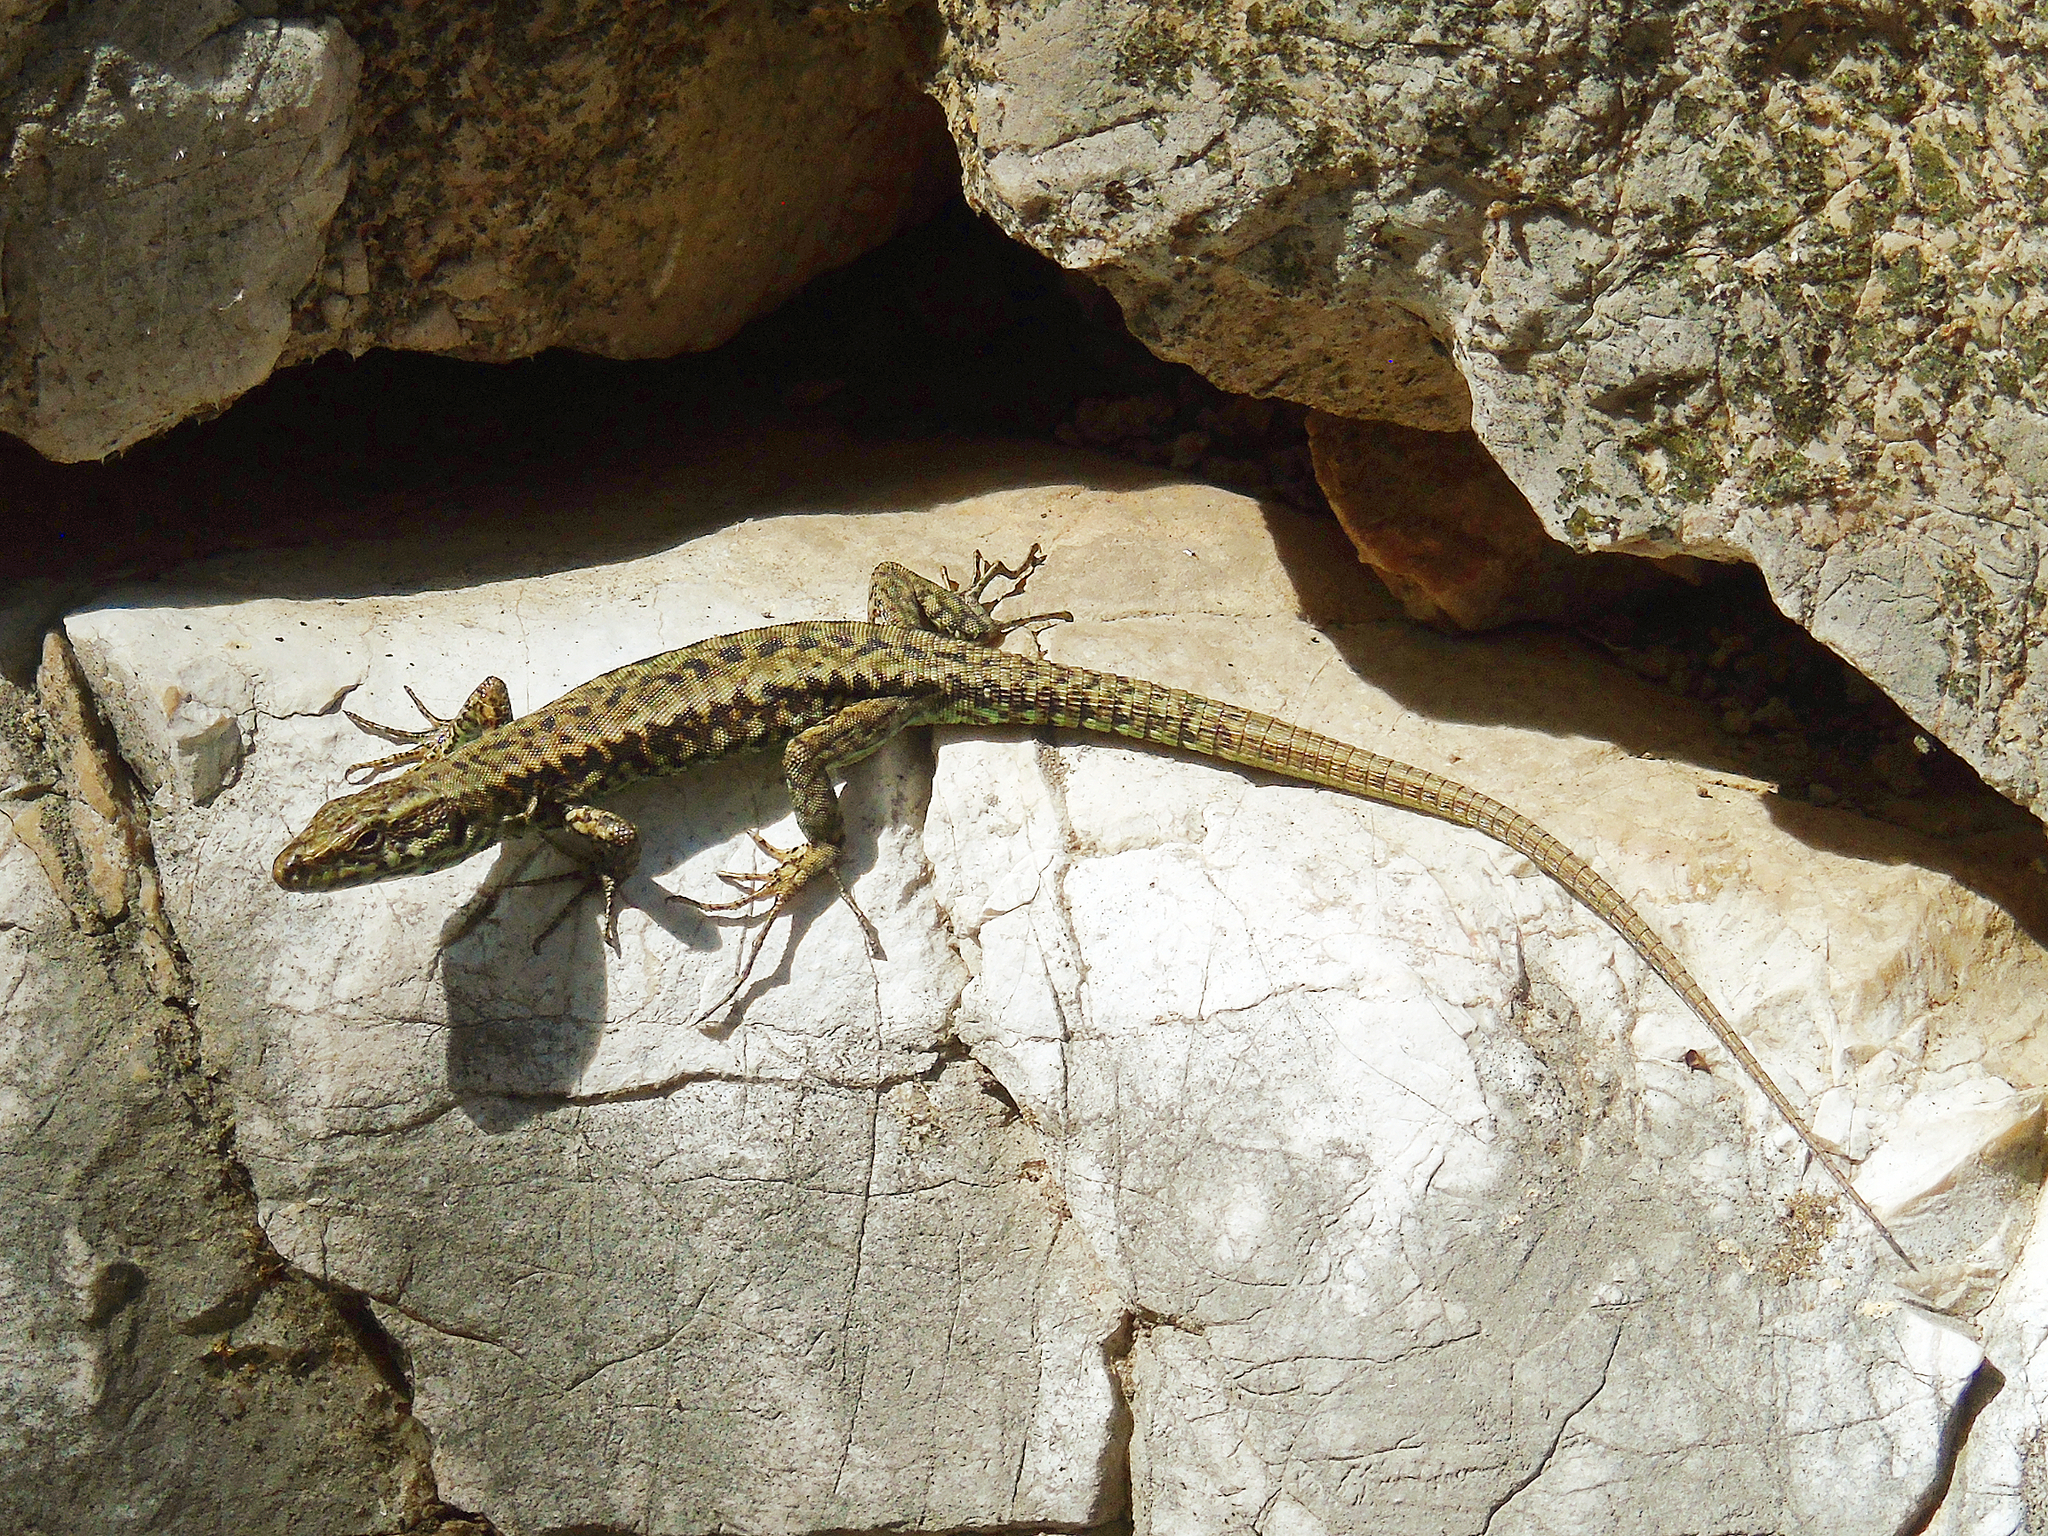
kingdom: Animalia
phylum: Chordata
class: Squamata
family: Lacertidae
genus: Podarcis
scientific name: Podarcis muralis
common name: Common wall lizard
